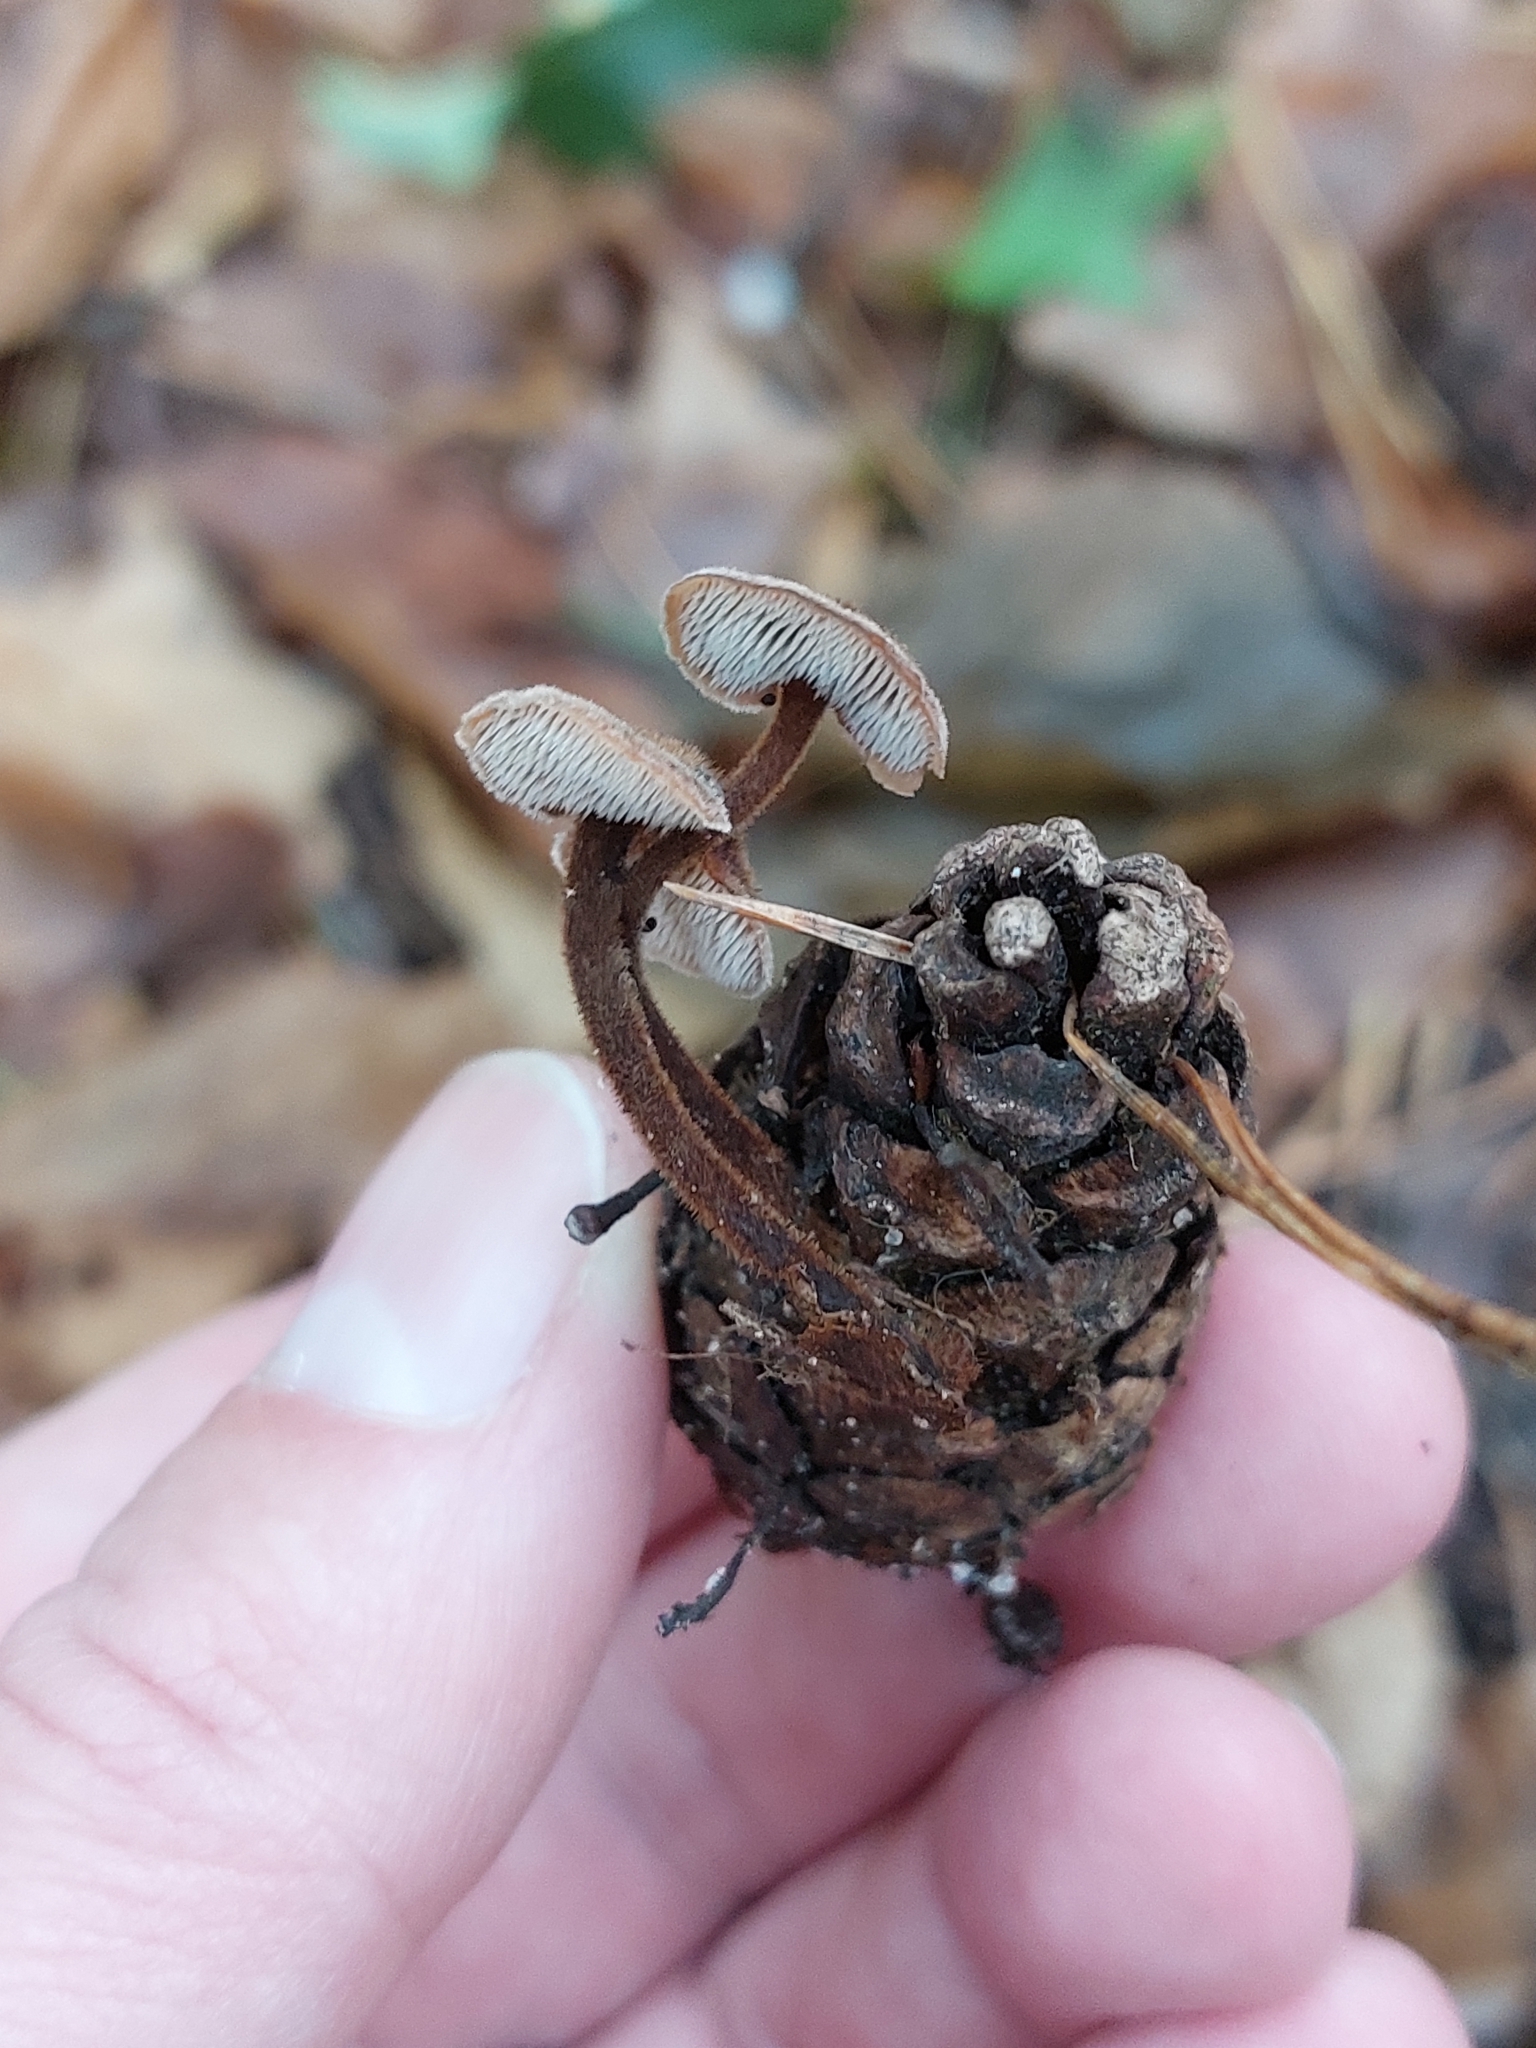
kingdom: Fungi
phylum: Basidiomycota
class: Agaricomycetes
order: Russulales
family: Auriscalpiaceae
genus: Auriscalpium
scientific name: Auriscalpium vulgare
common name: Earpick fungus
